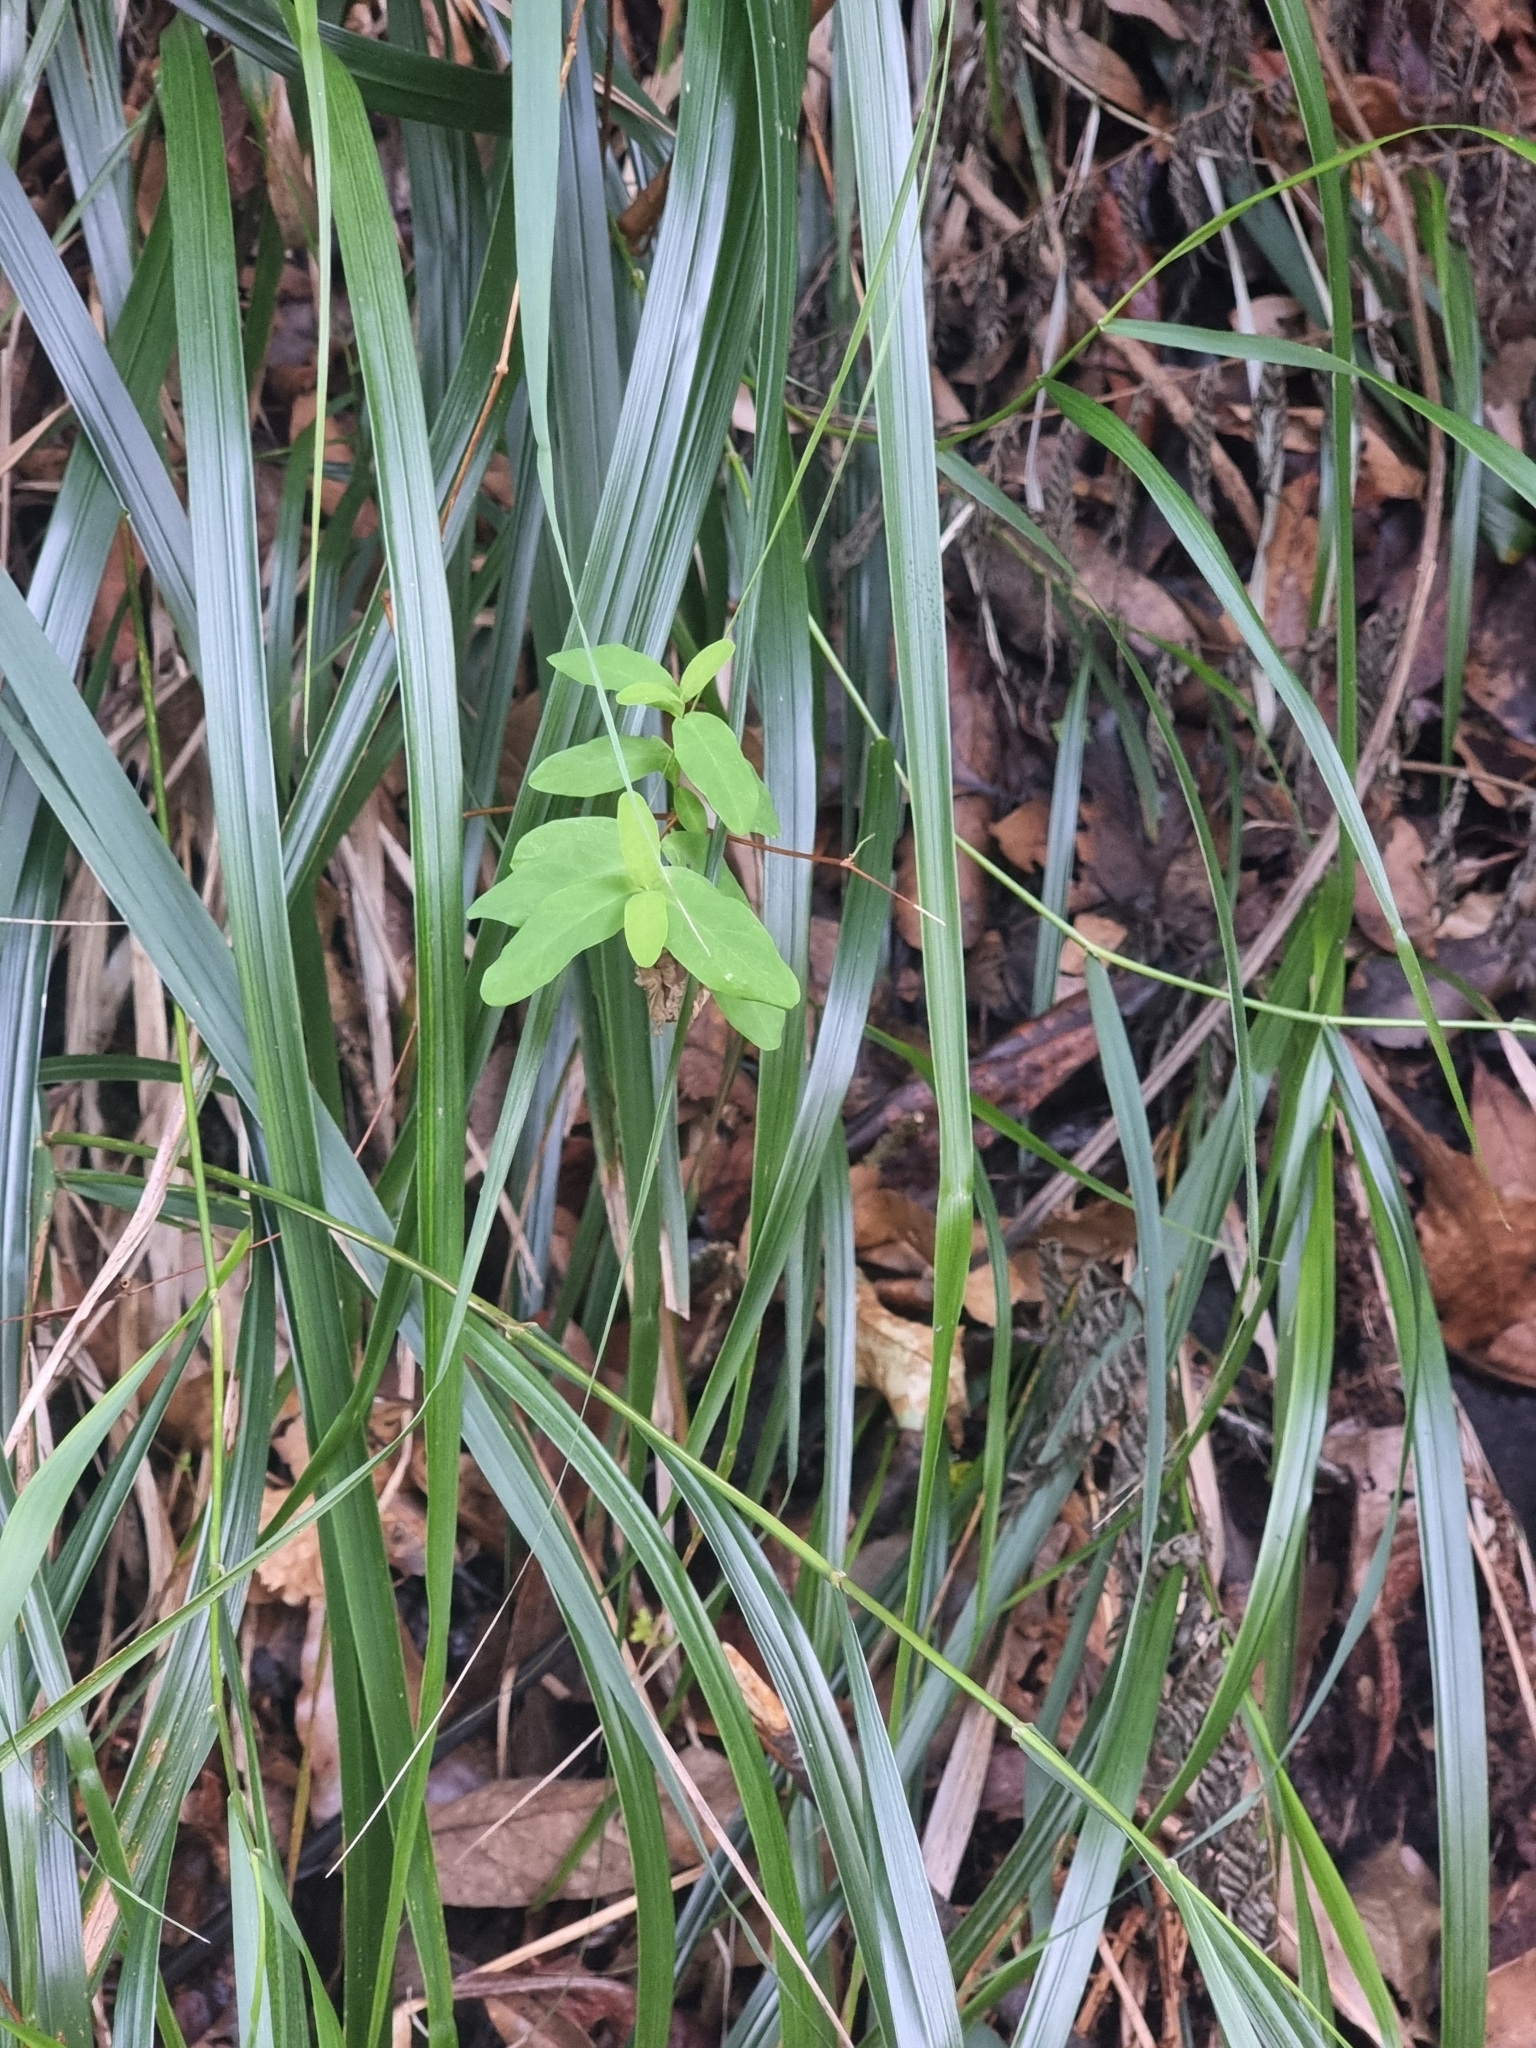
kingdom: Plantae
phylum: Tracheophyta
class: Magnoliopsida
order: Malpighiales
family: Hypericaceae
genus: Hypericum
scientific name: Hypericum grandifolium
